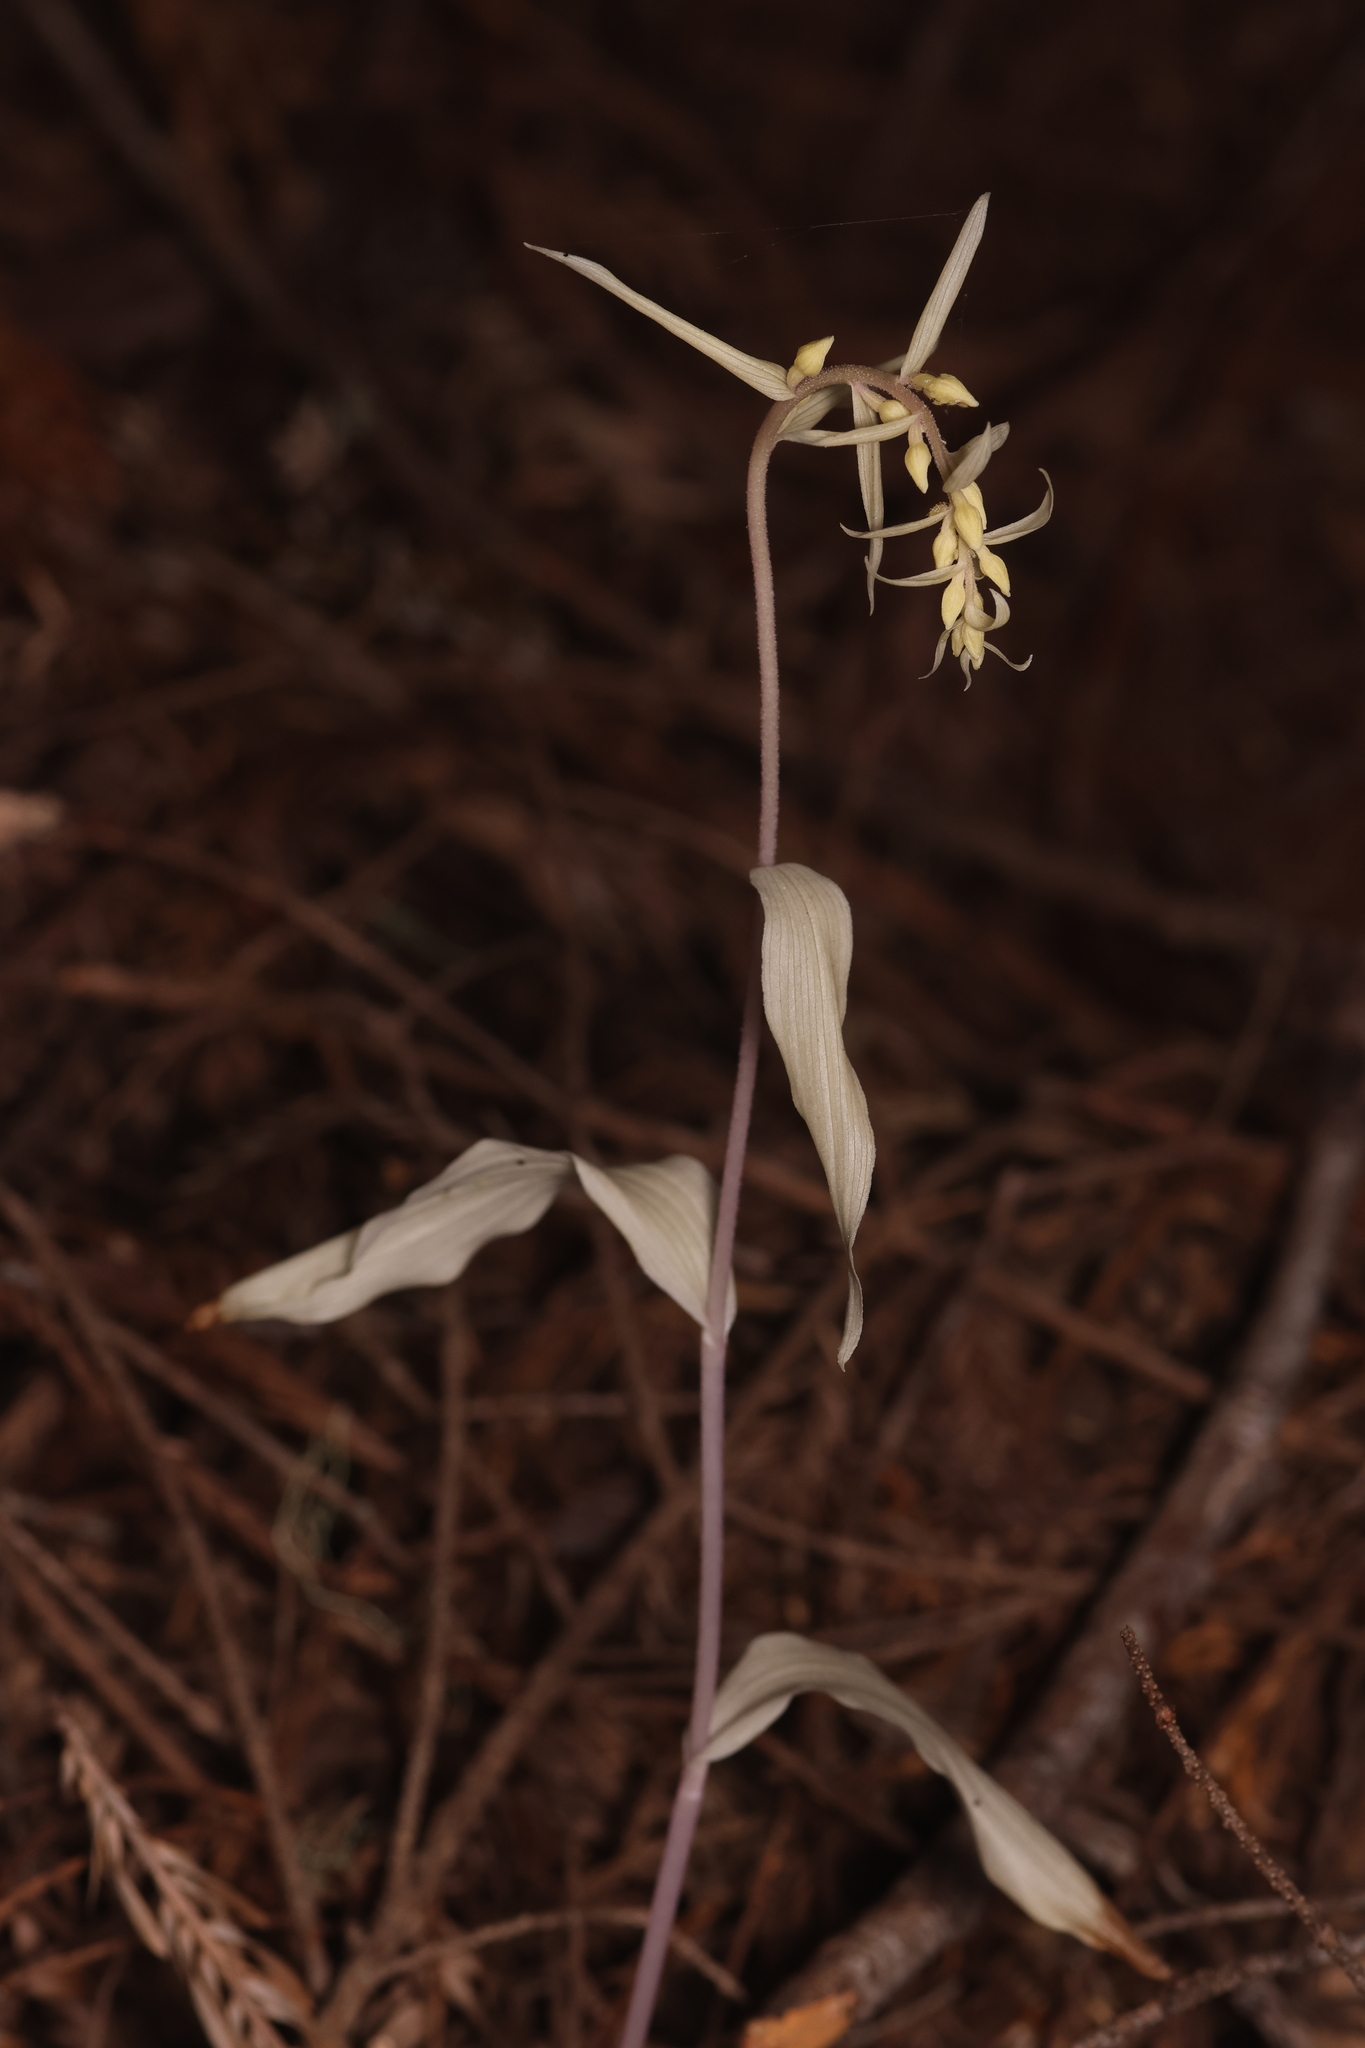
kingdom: Plantae
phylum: Tracheophyta
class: Liliopsida
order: Asparagales
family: Orchidaceae
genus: Epipactis
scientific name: Epipactis helleborine
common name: Broad-leaved helleborine
